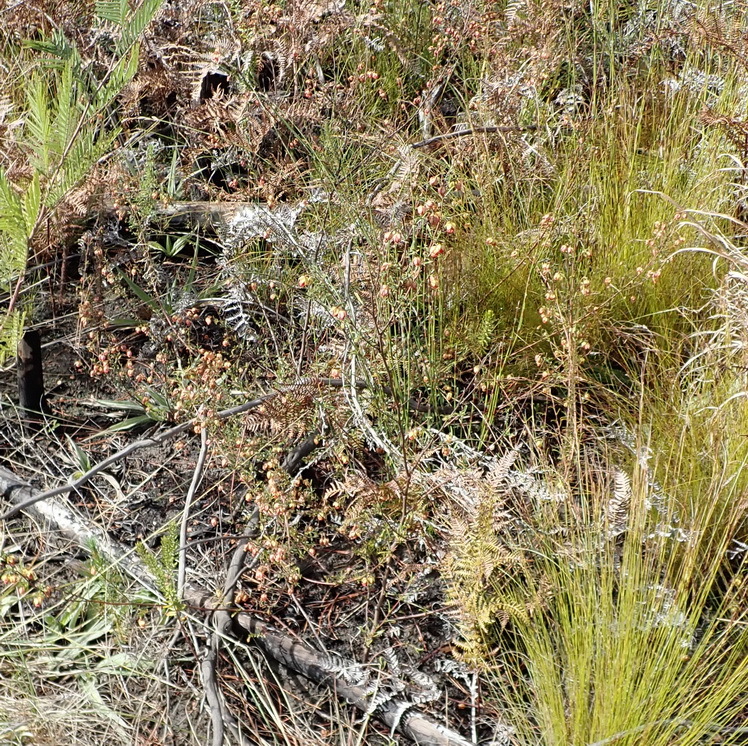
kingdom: Plantae
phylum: Tracheophyta
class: Magnoliopsida
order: Malvales
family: Malvaceae
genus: Hermannia
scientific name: Hermannia angularis
